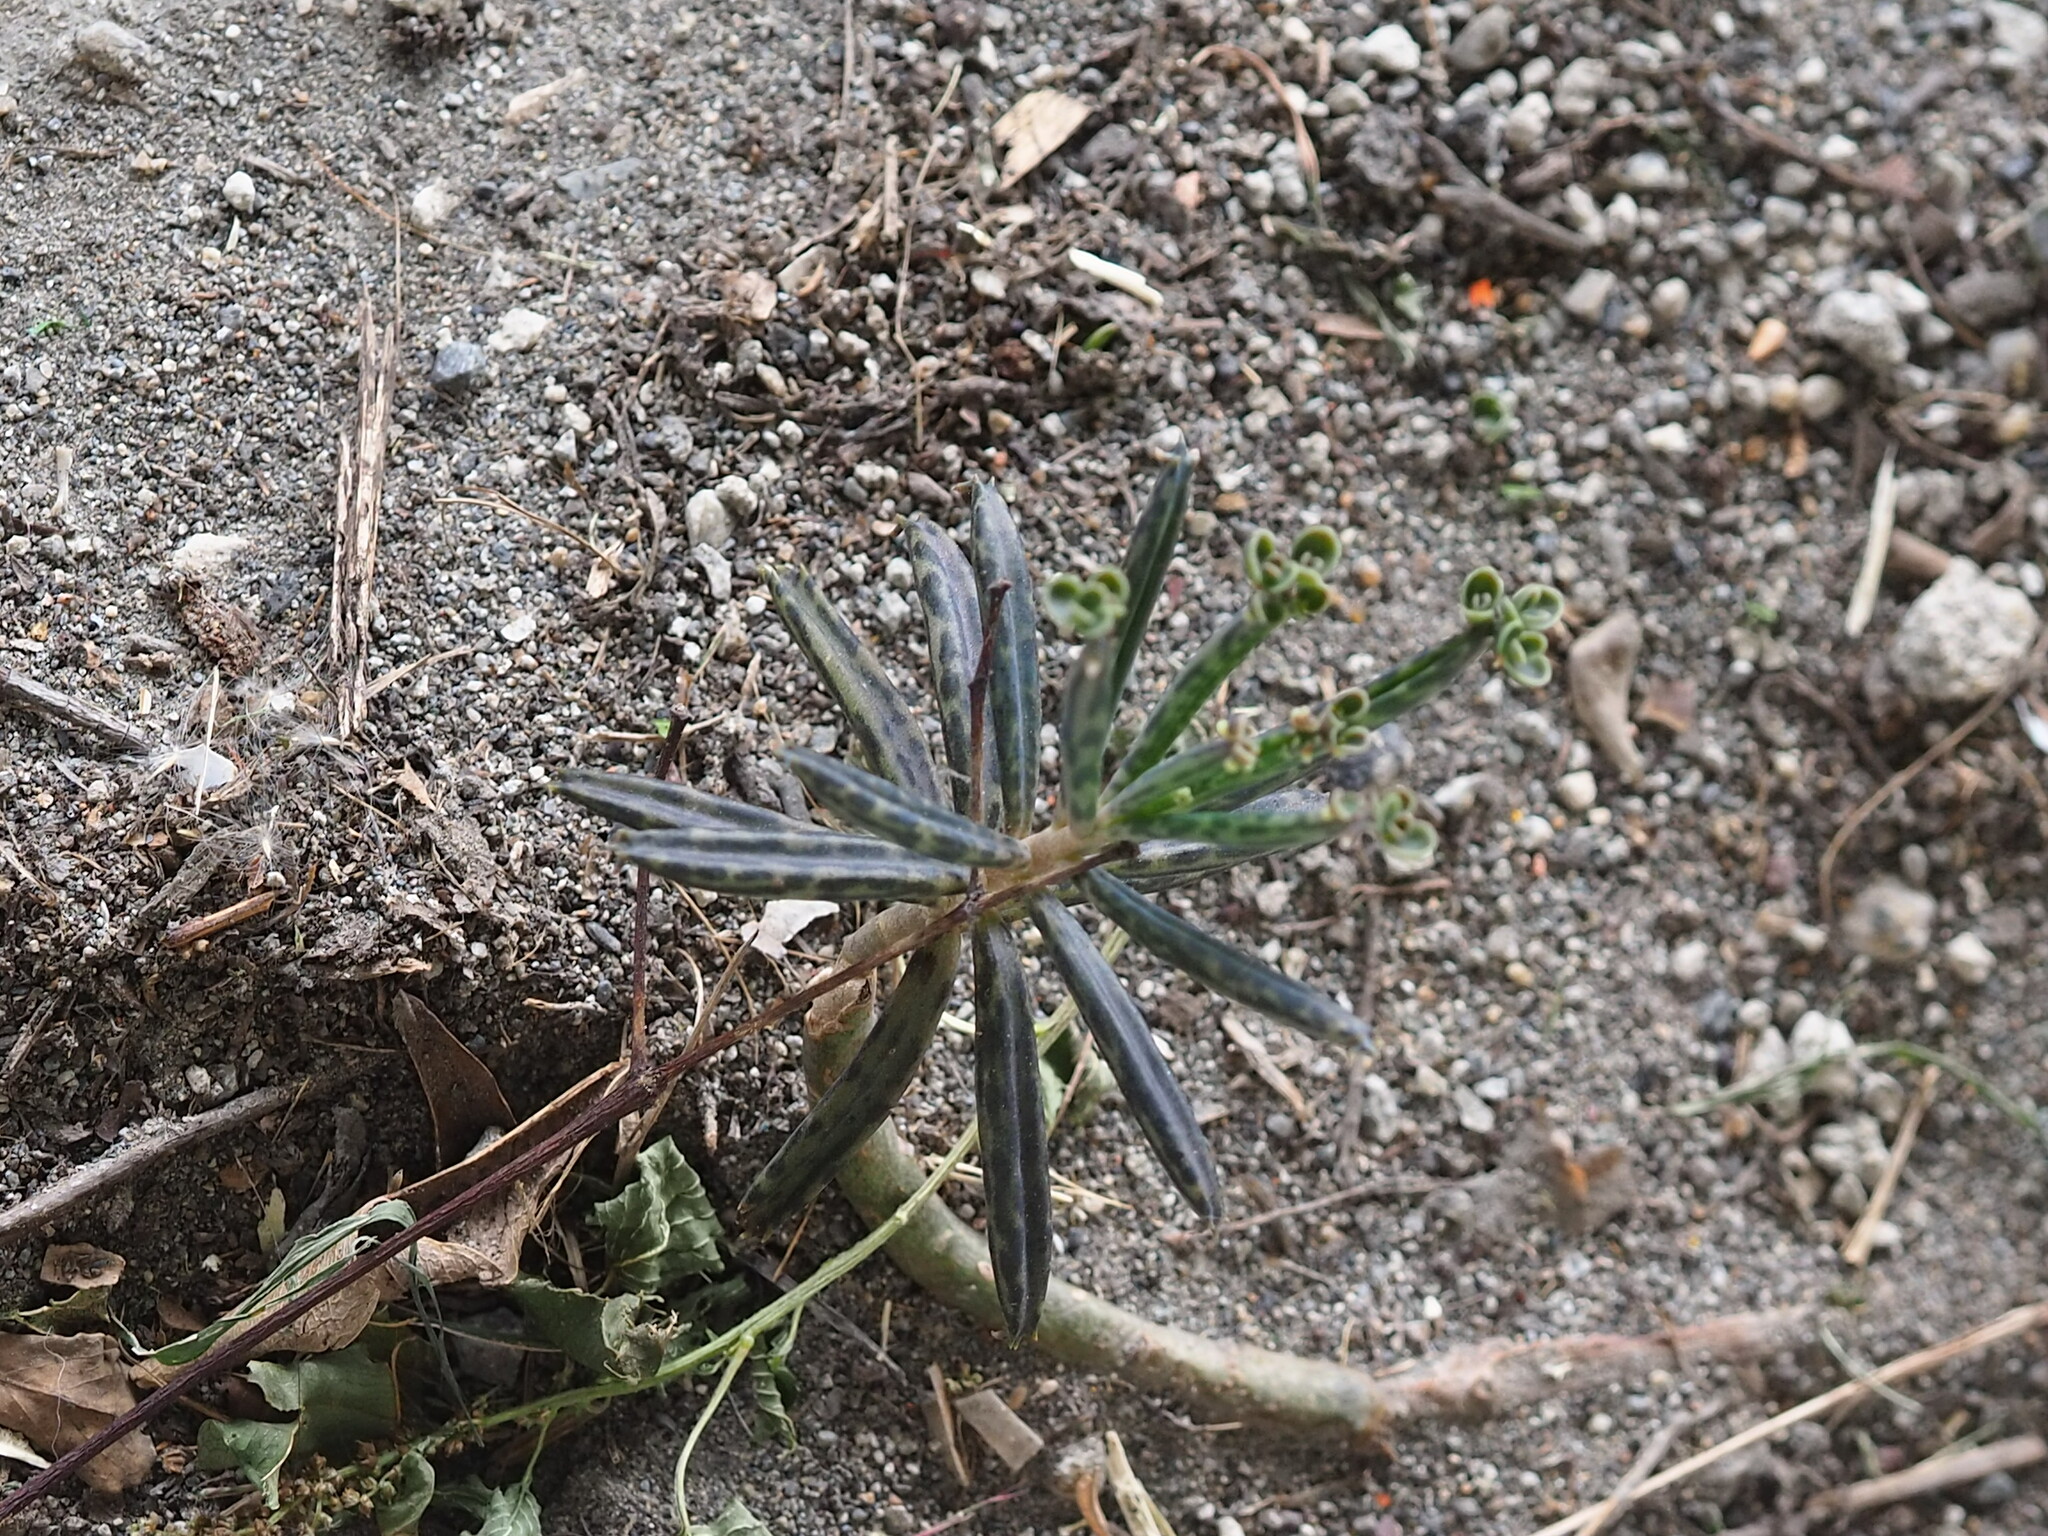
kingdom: Plantae
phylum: Tracheophyta
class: Magnoliopsida
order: Saxifragales
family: Crassulaceae
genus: Kalanchoe
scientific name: Kalanchoe delagoensis
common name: Chandelier plant
